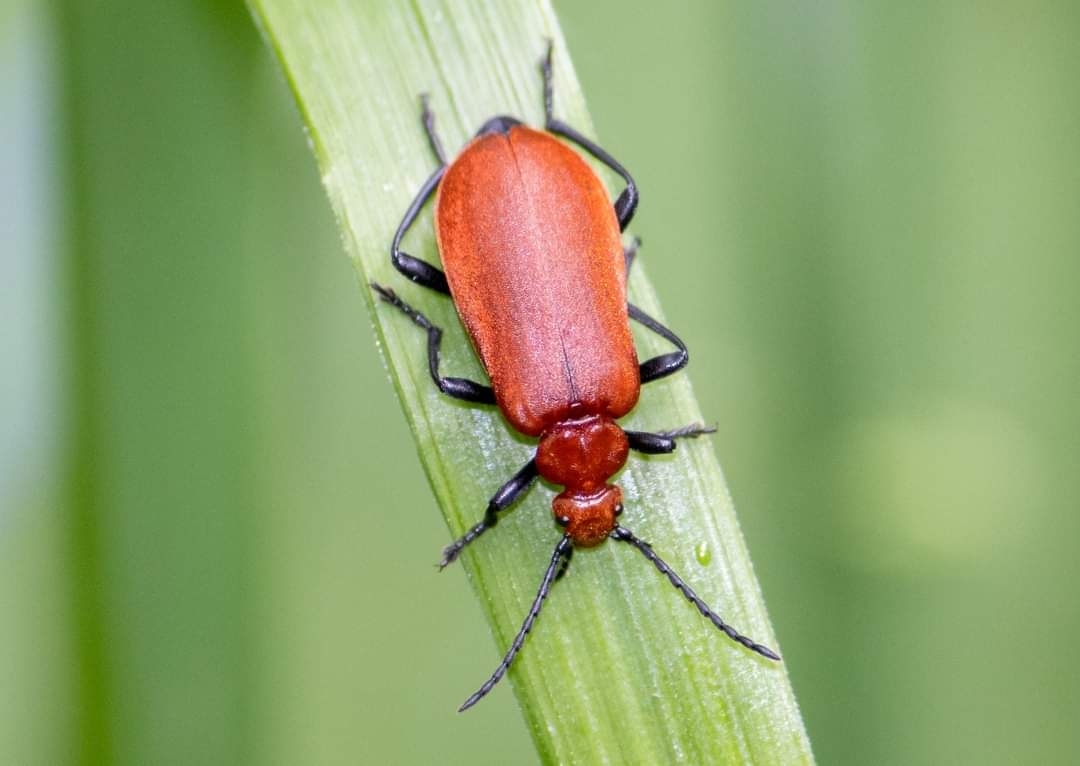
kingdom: Animalia
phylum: Arthropoda
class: Insecta
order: Coleoptera
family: Pyrochroidae
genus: Pyrochroa
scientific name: Pyrochroa serraticornis
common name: Red-headed cardinal beetle
